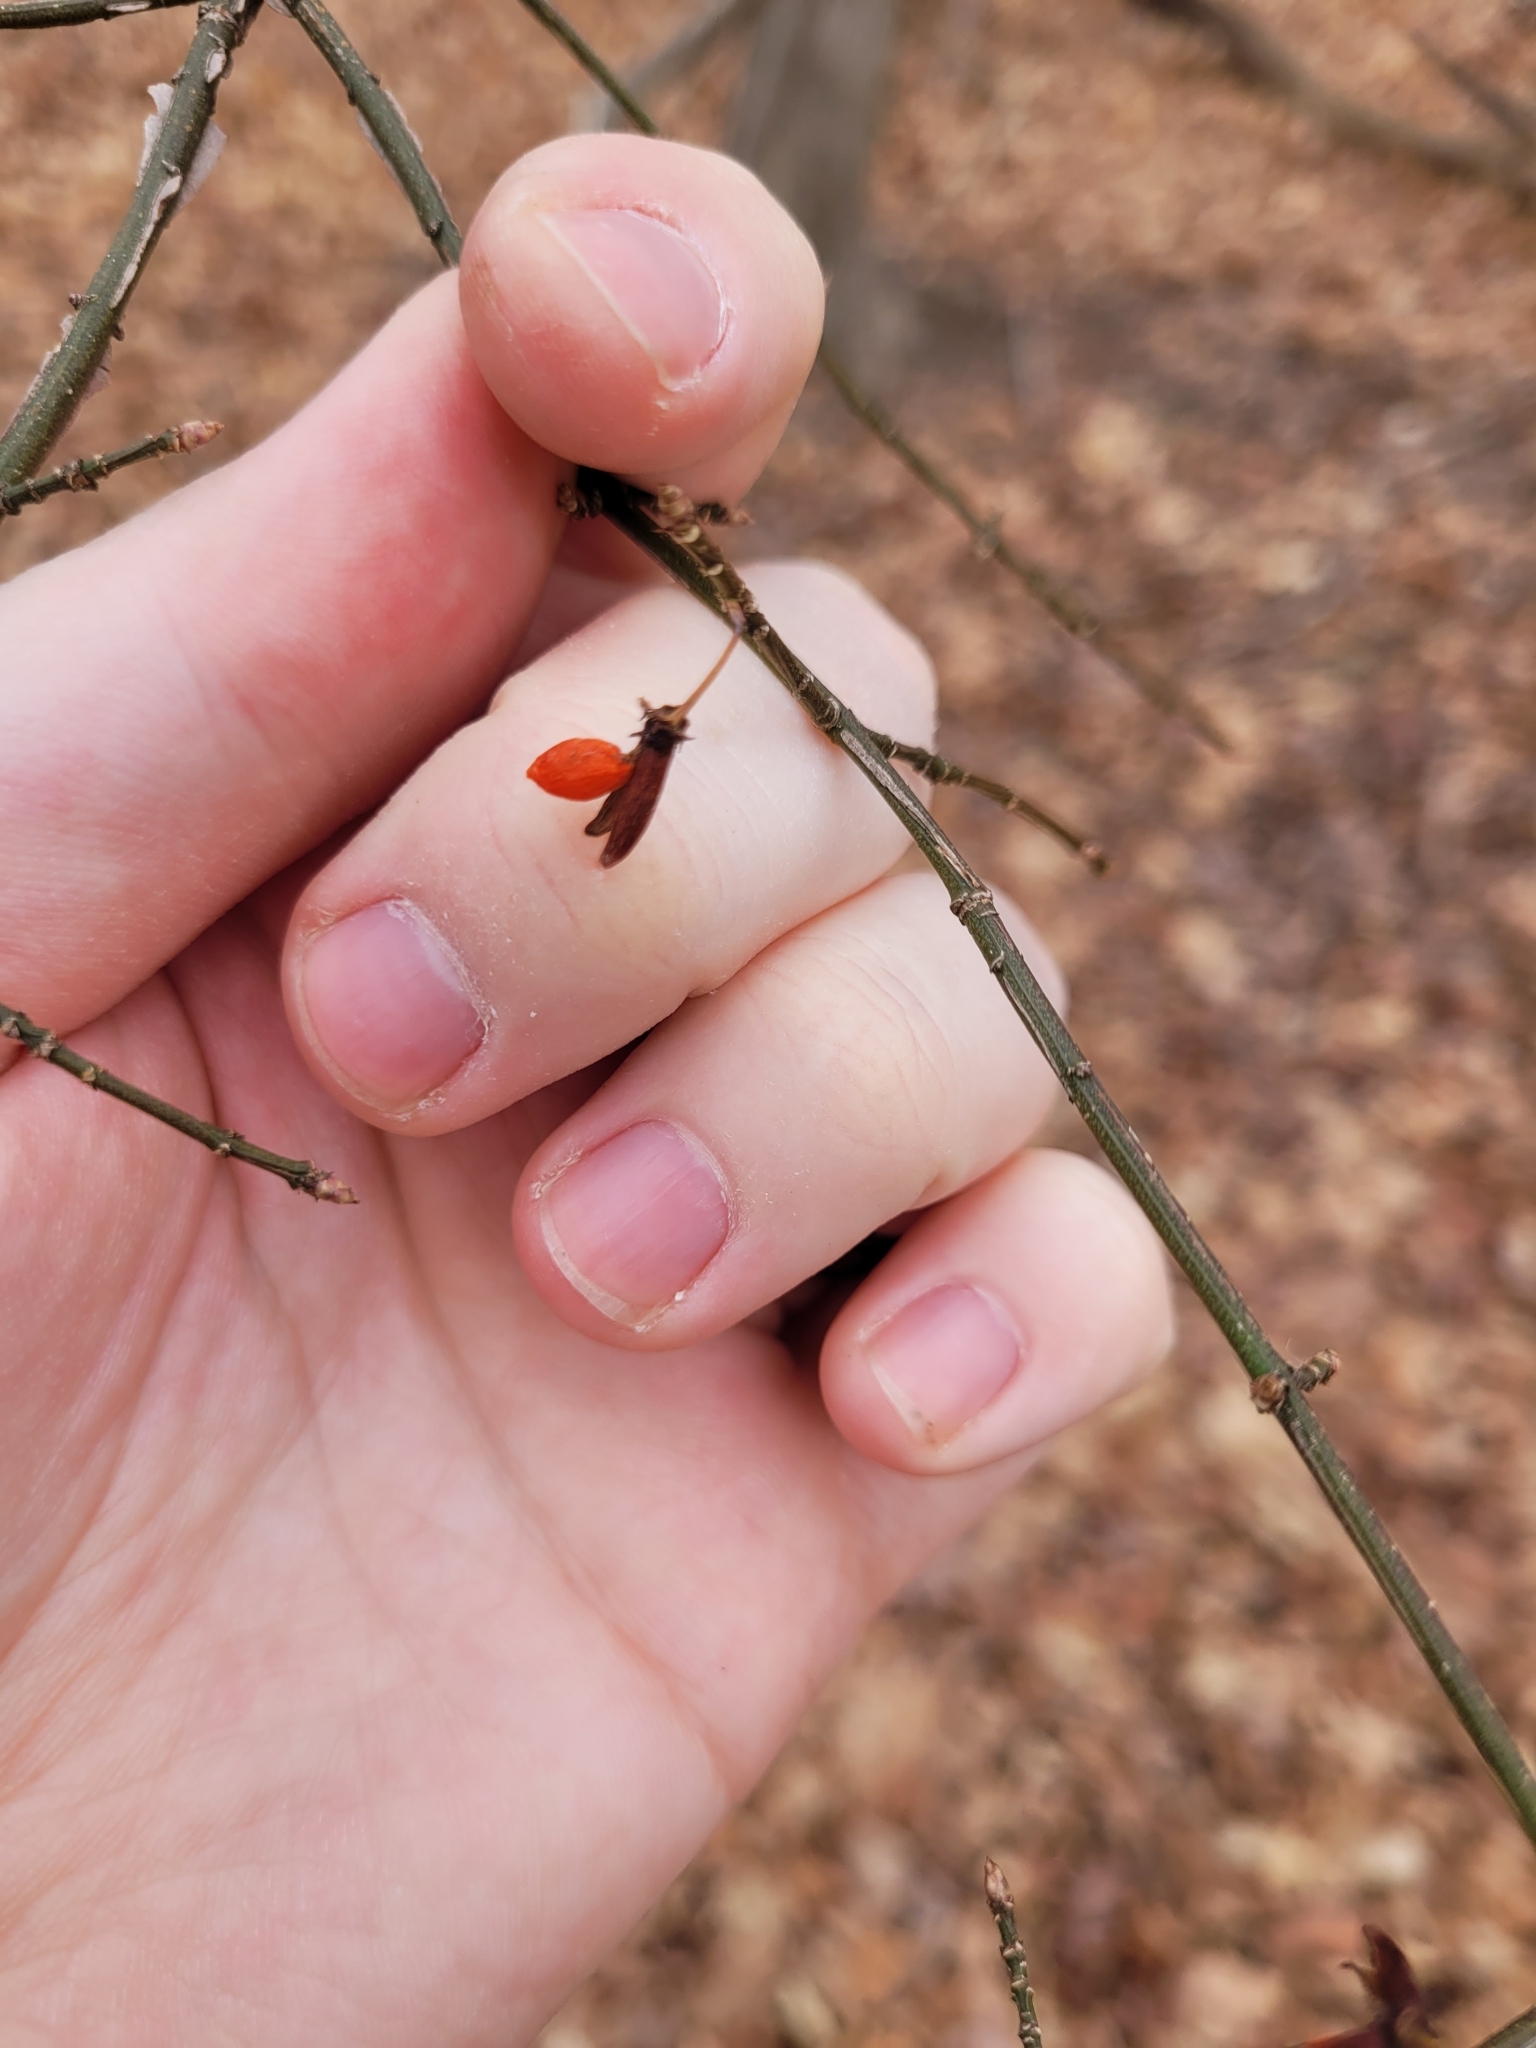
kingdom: Plantae
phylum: Tracheophyta
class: Magnoliopsida
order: Celastrales
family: Celastraceae
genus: Euonymus
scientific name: Euonymus alatus
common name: Winged euonymus
